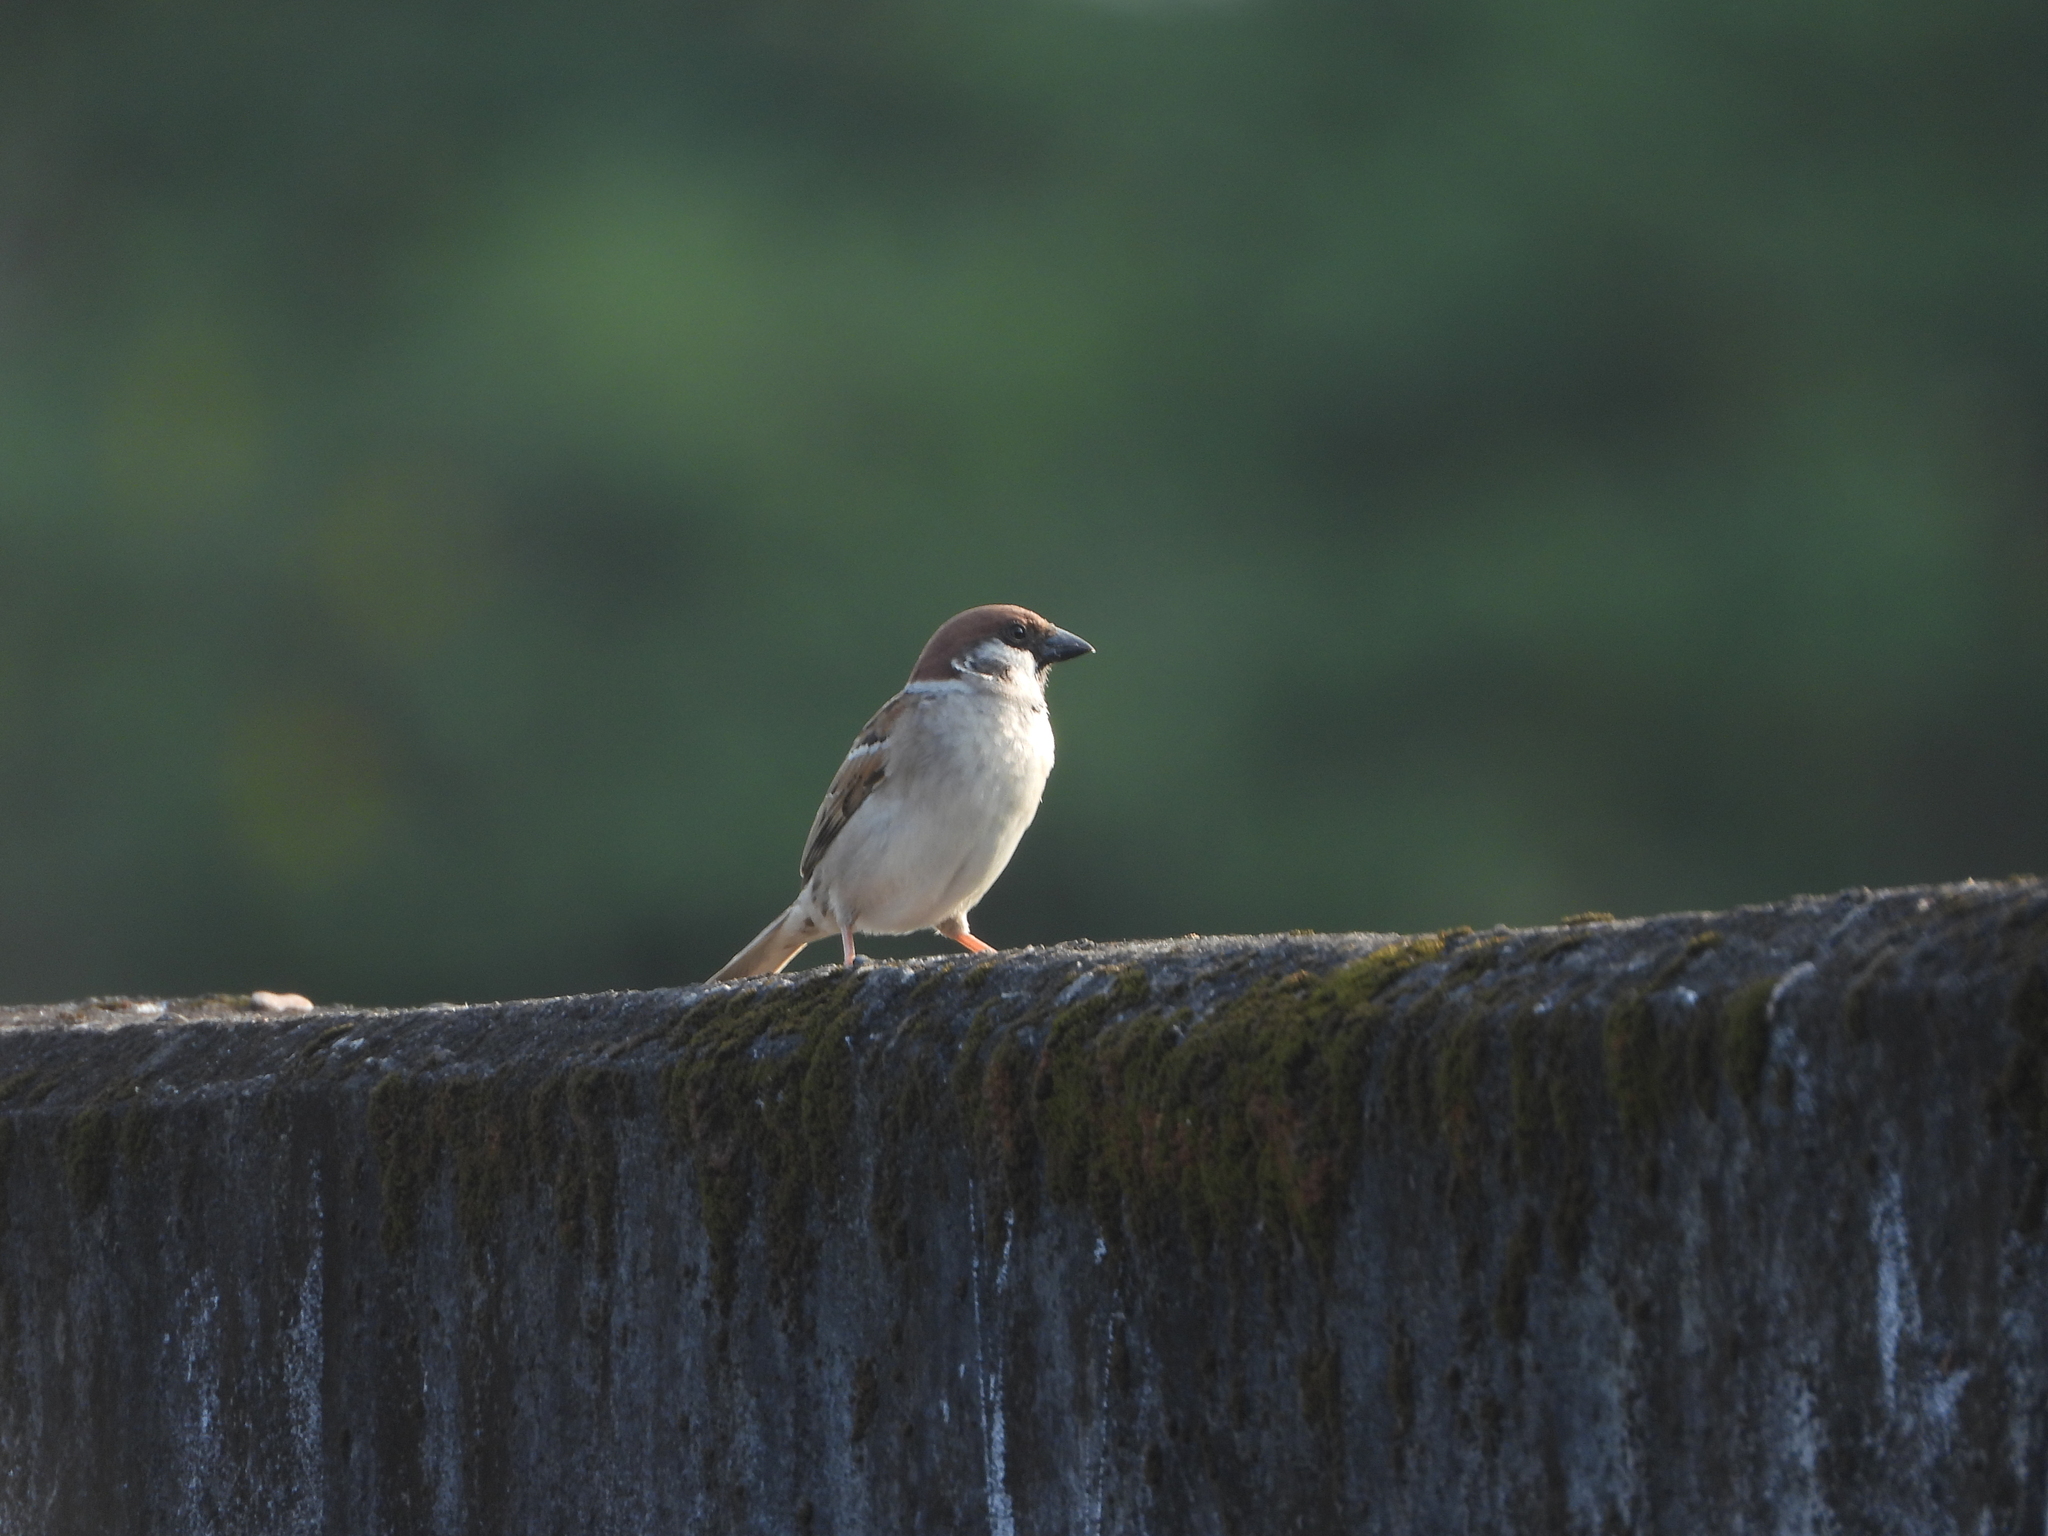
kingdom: Animalia
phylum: Chordata
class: Aves
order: Passeriformes
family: Passeridae
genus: Passer
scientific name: Passer montanus
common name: Eurasian tree sparrow
